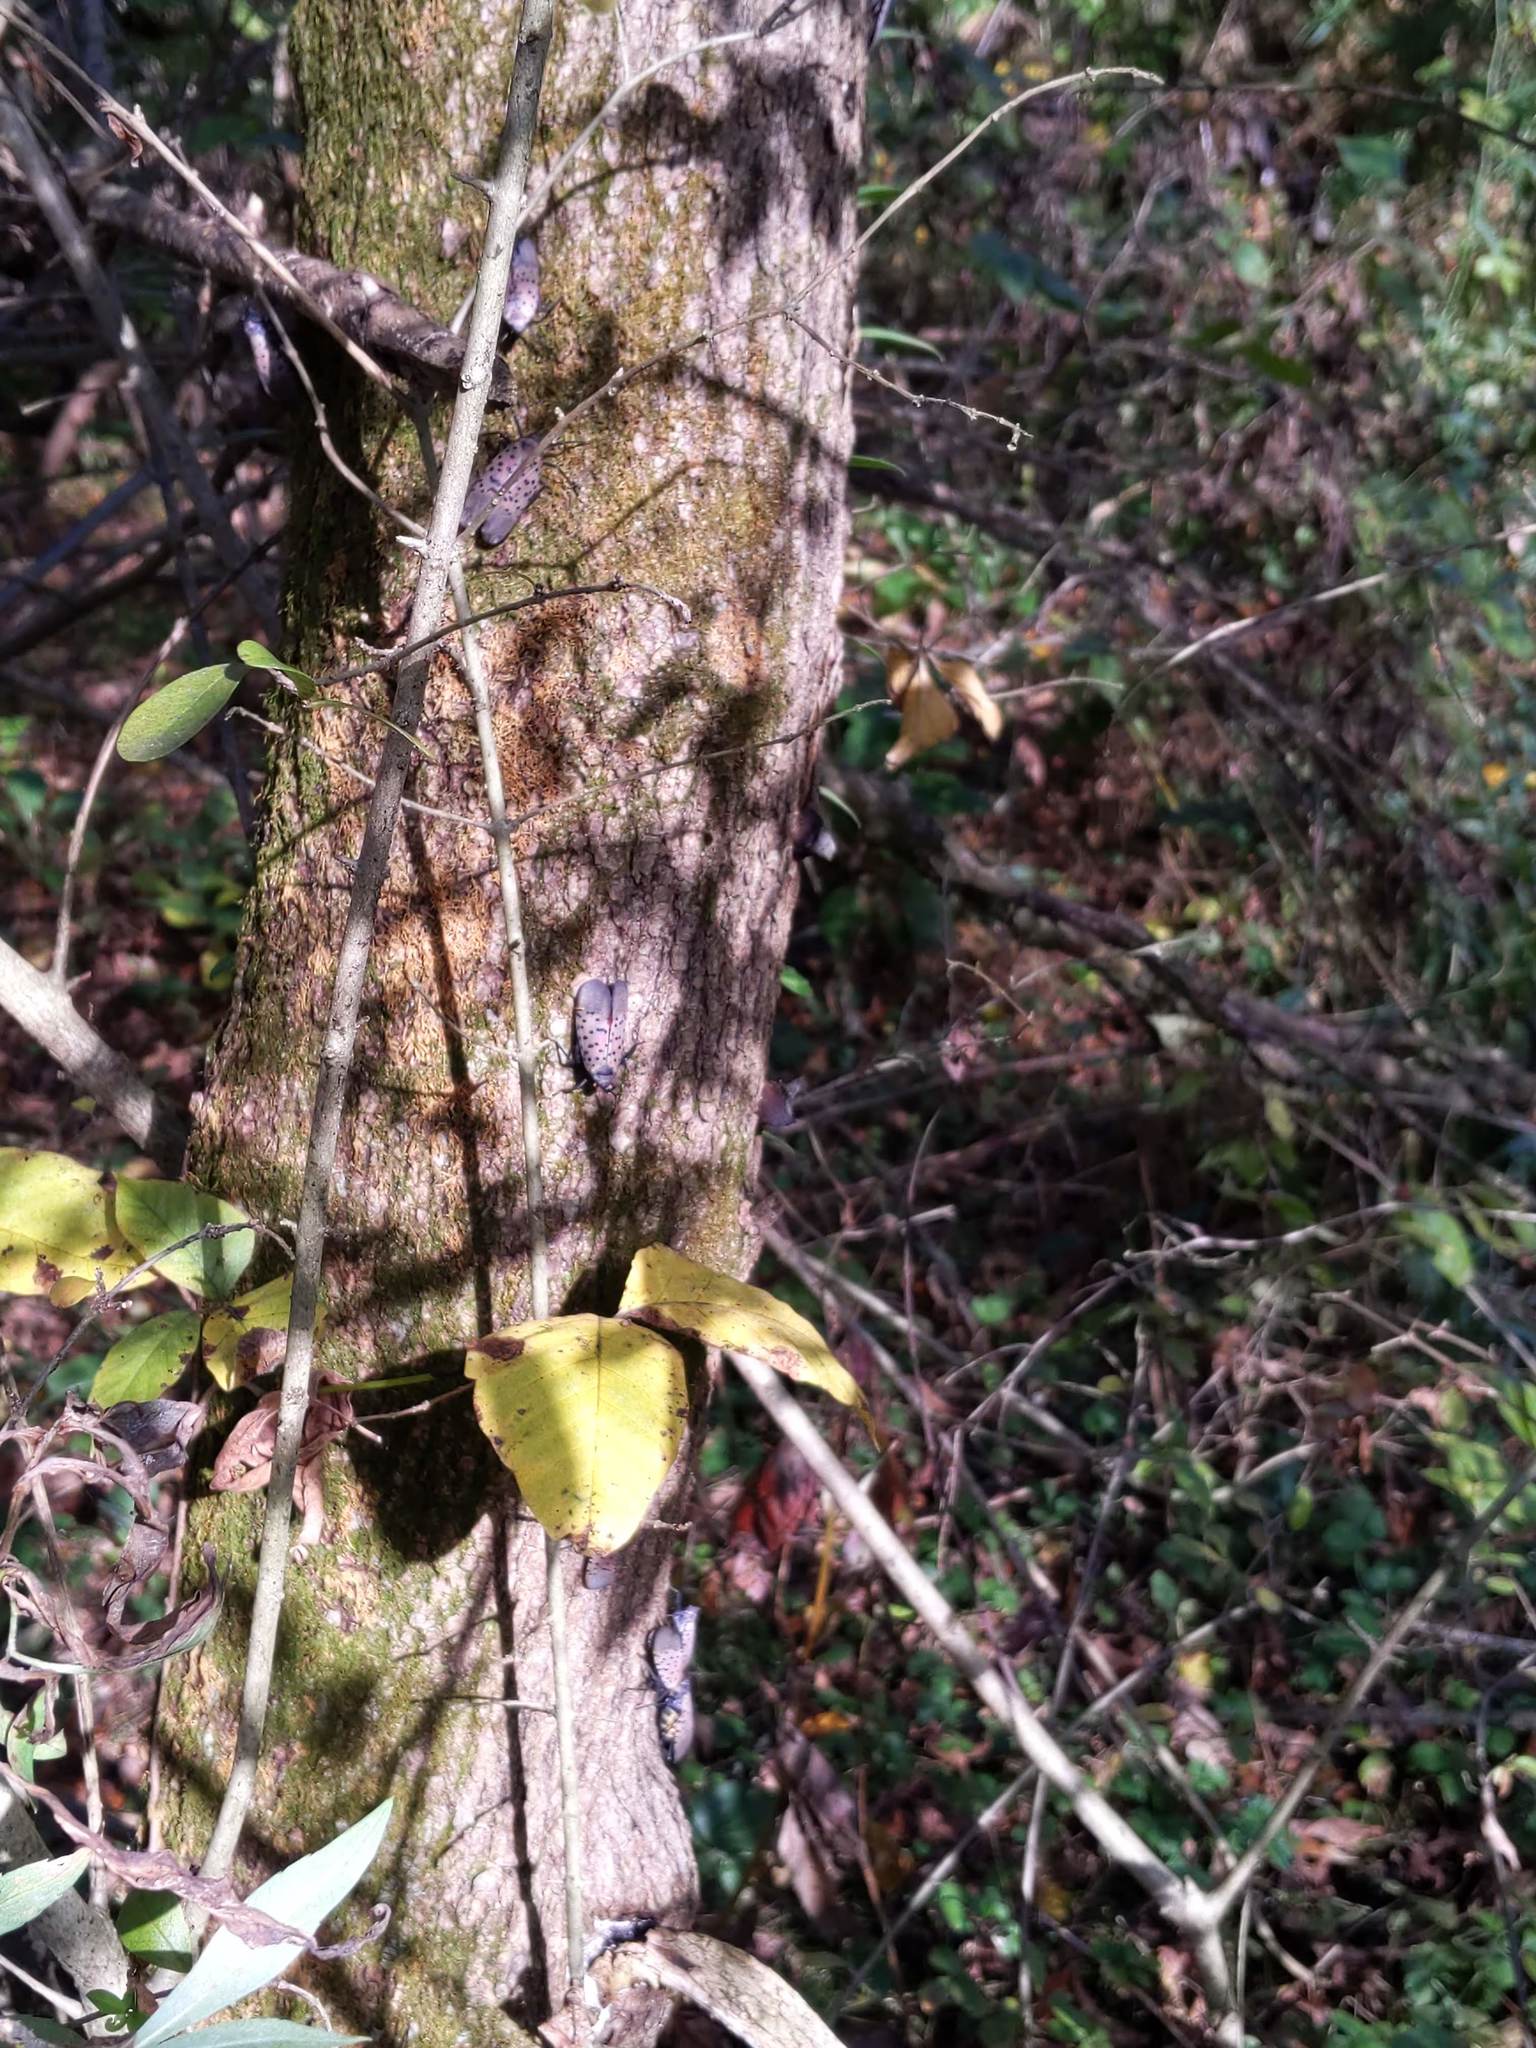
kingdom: Animalia
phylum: Arthropoda
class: Insecta
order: Hemiptera
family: Fulgoridae
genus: Lycorma
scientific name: Lycorma delicatula
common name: Spotted lanternfly
